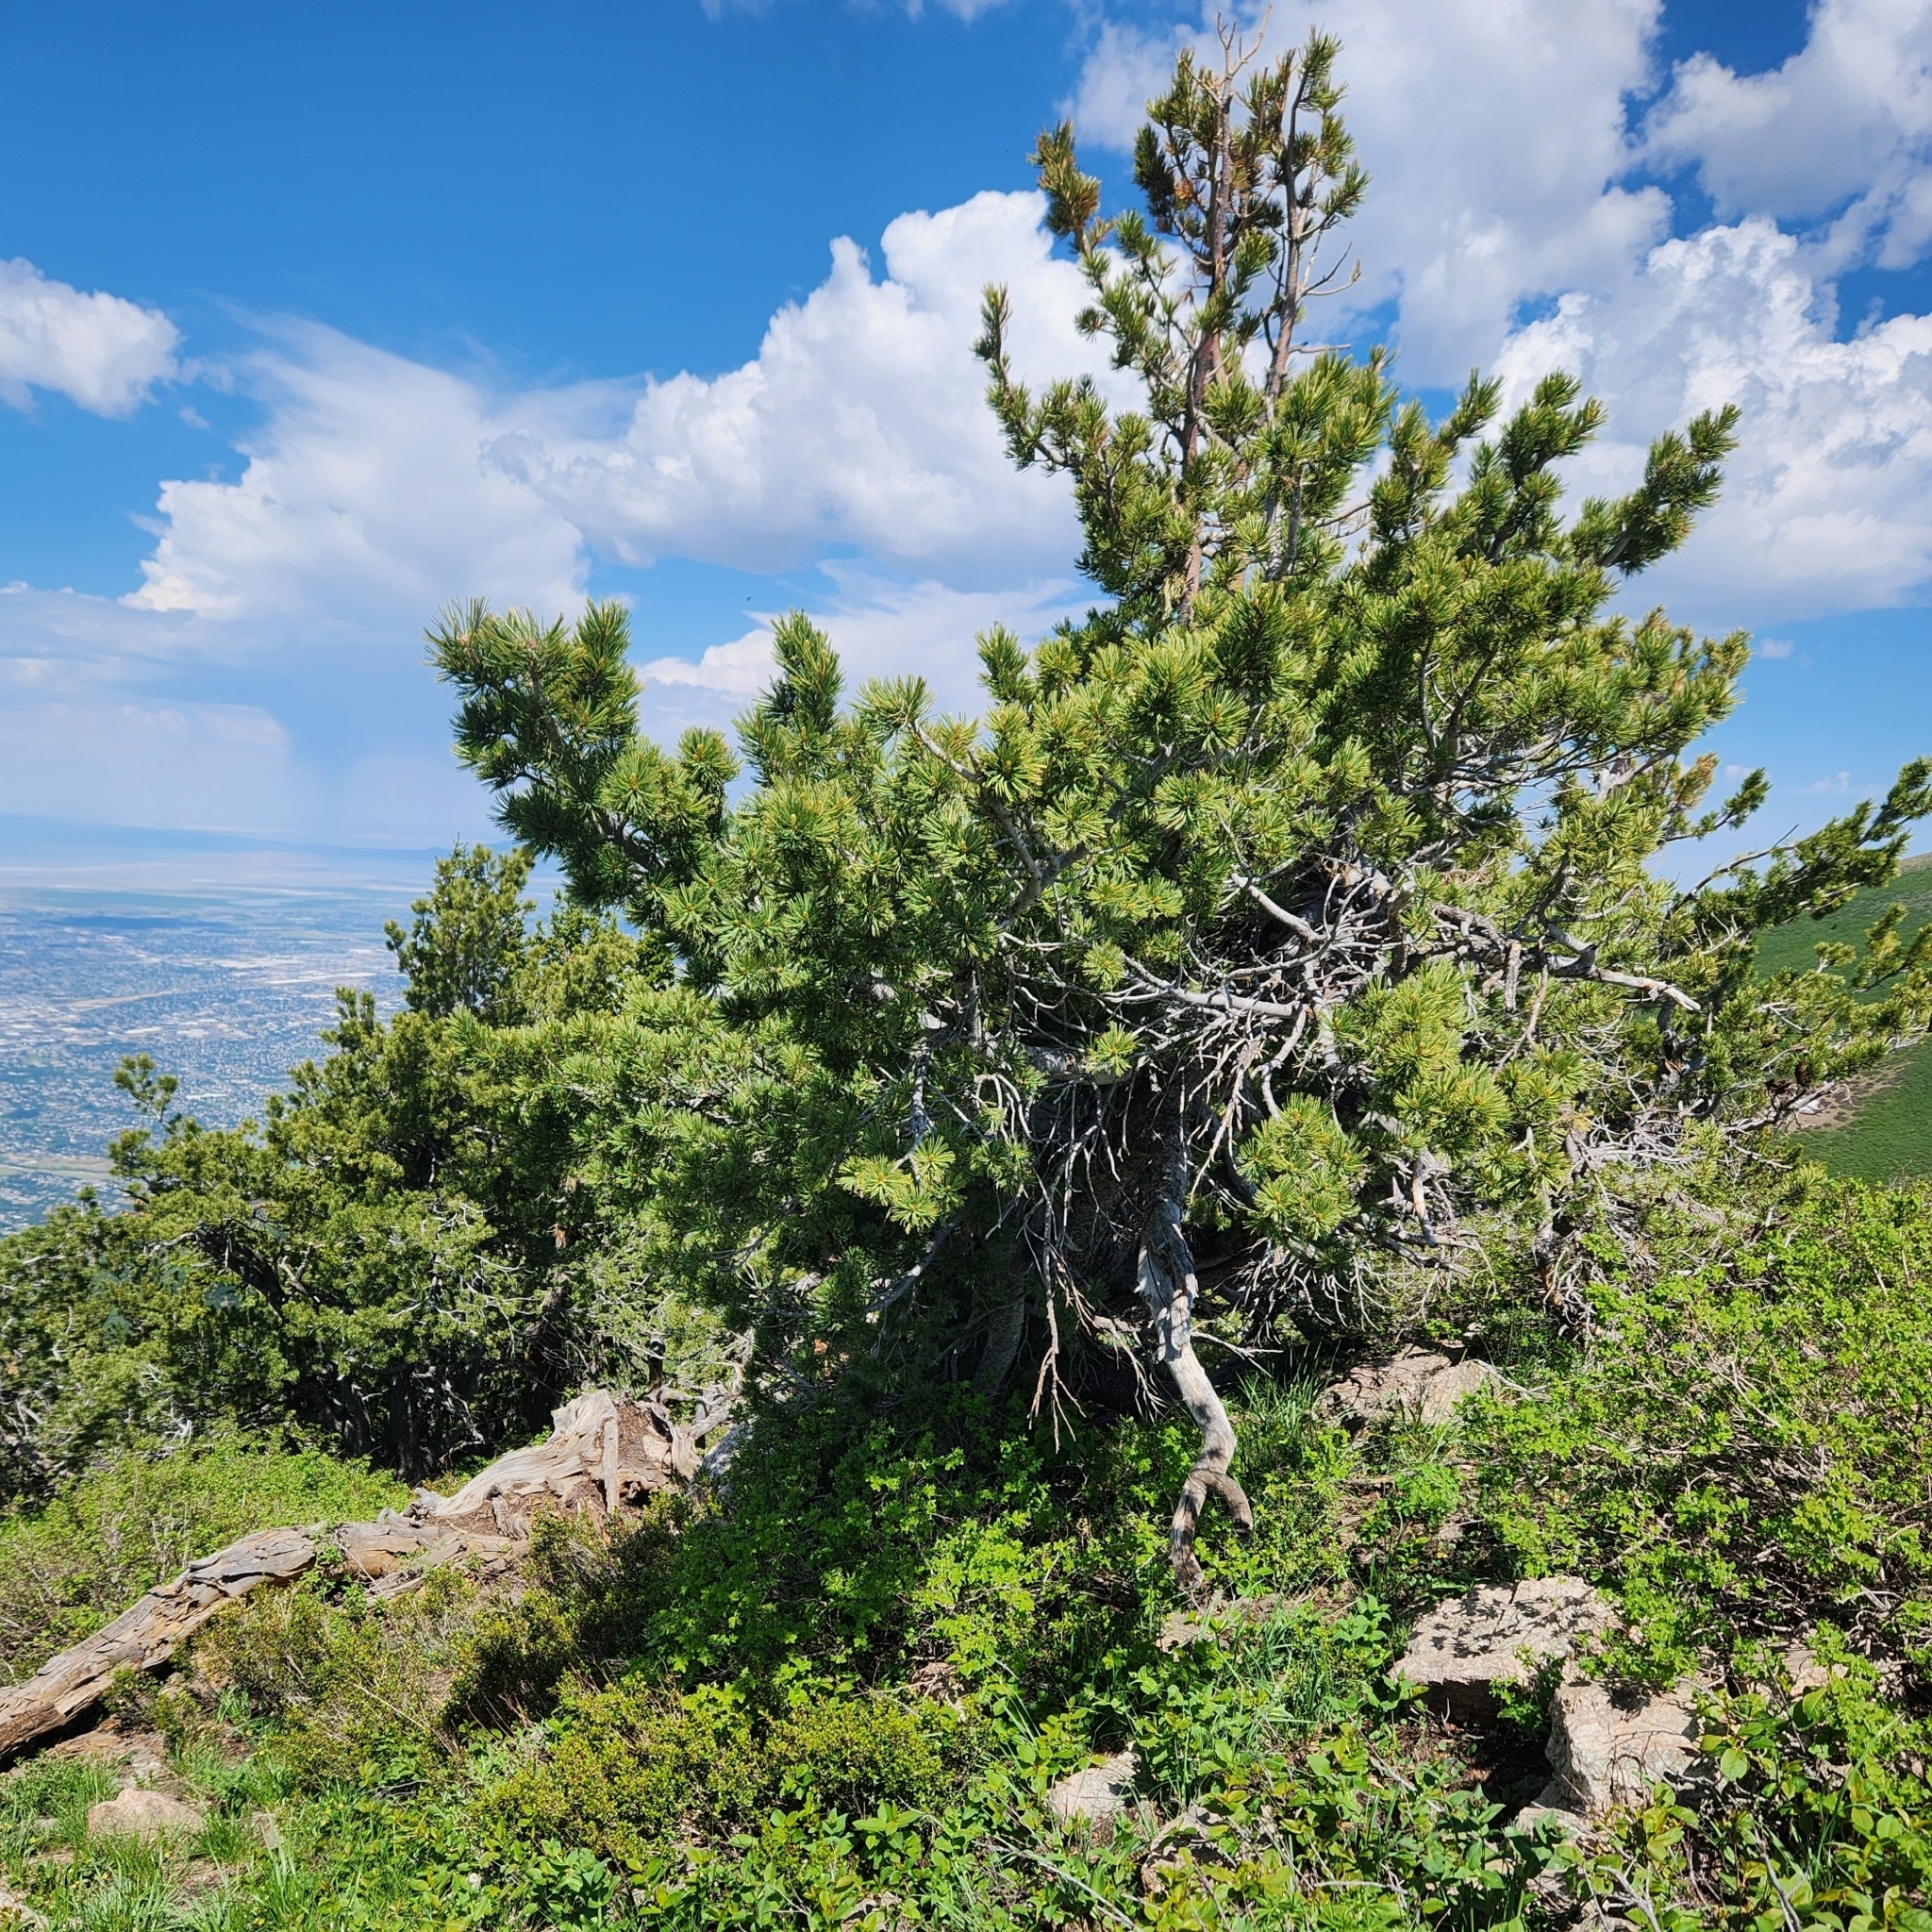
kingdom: Plantae
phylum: Tracheophyta
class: Pinopsida
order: Pinales
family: Pinaceae
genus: Pinus
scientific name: Pinus flexilis
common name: Limber pine
